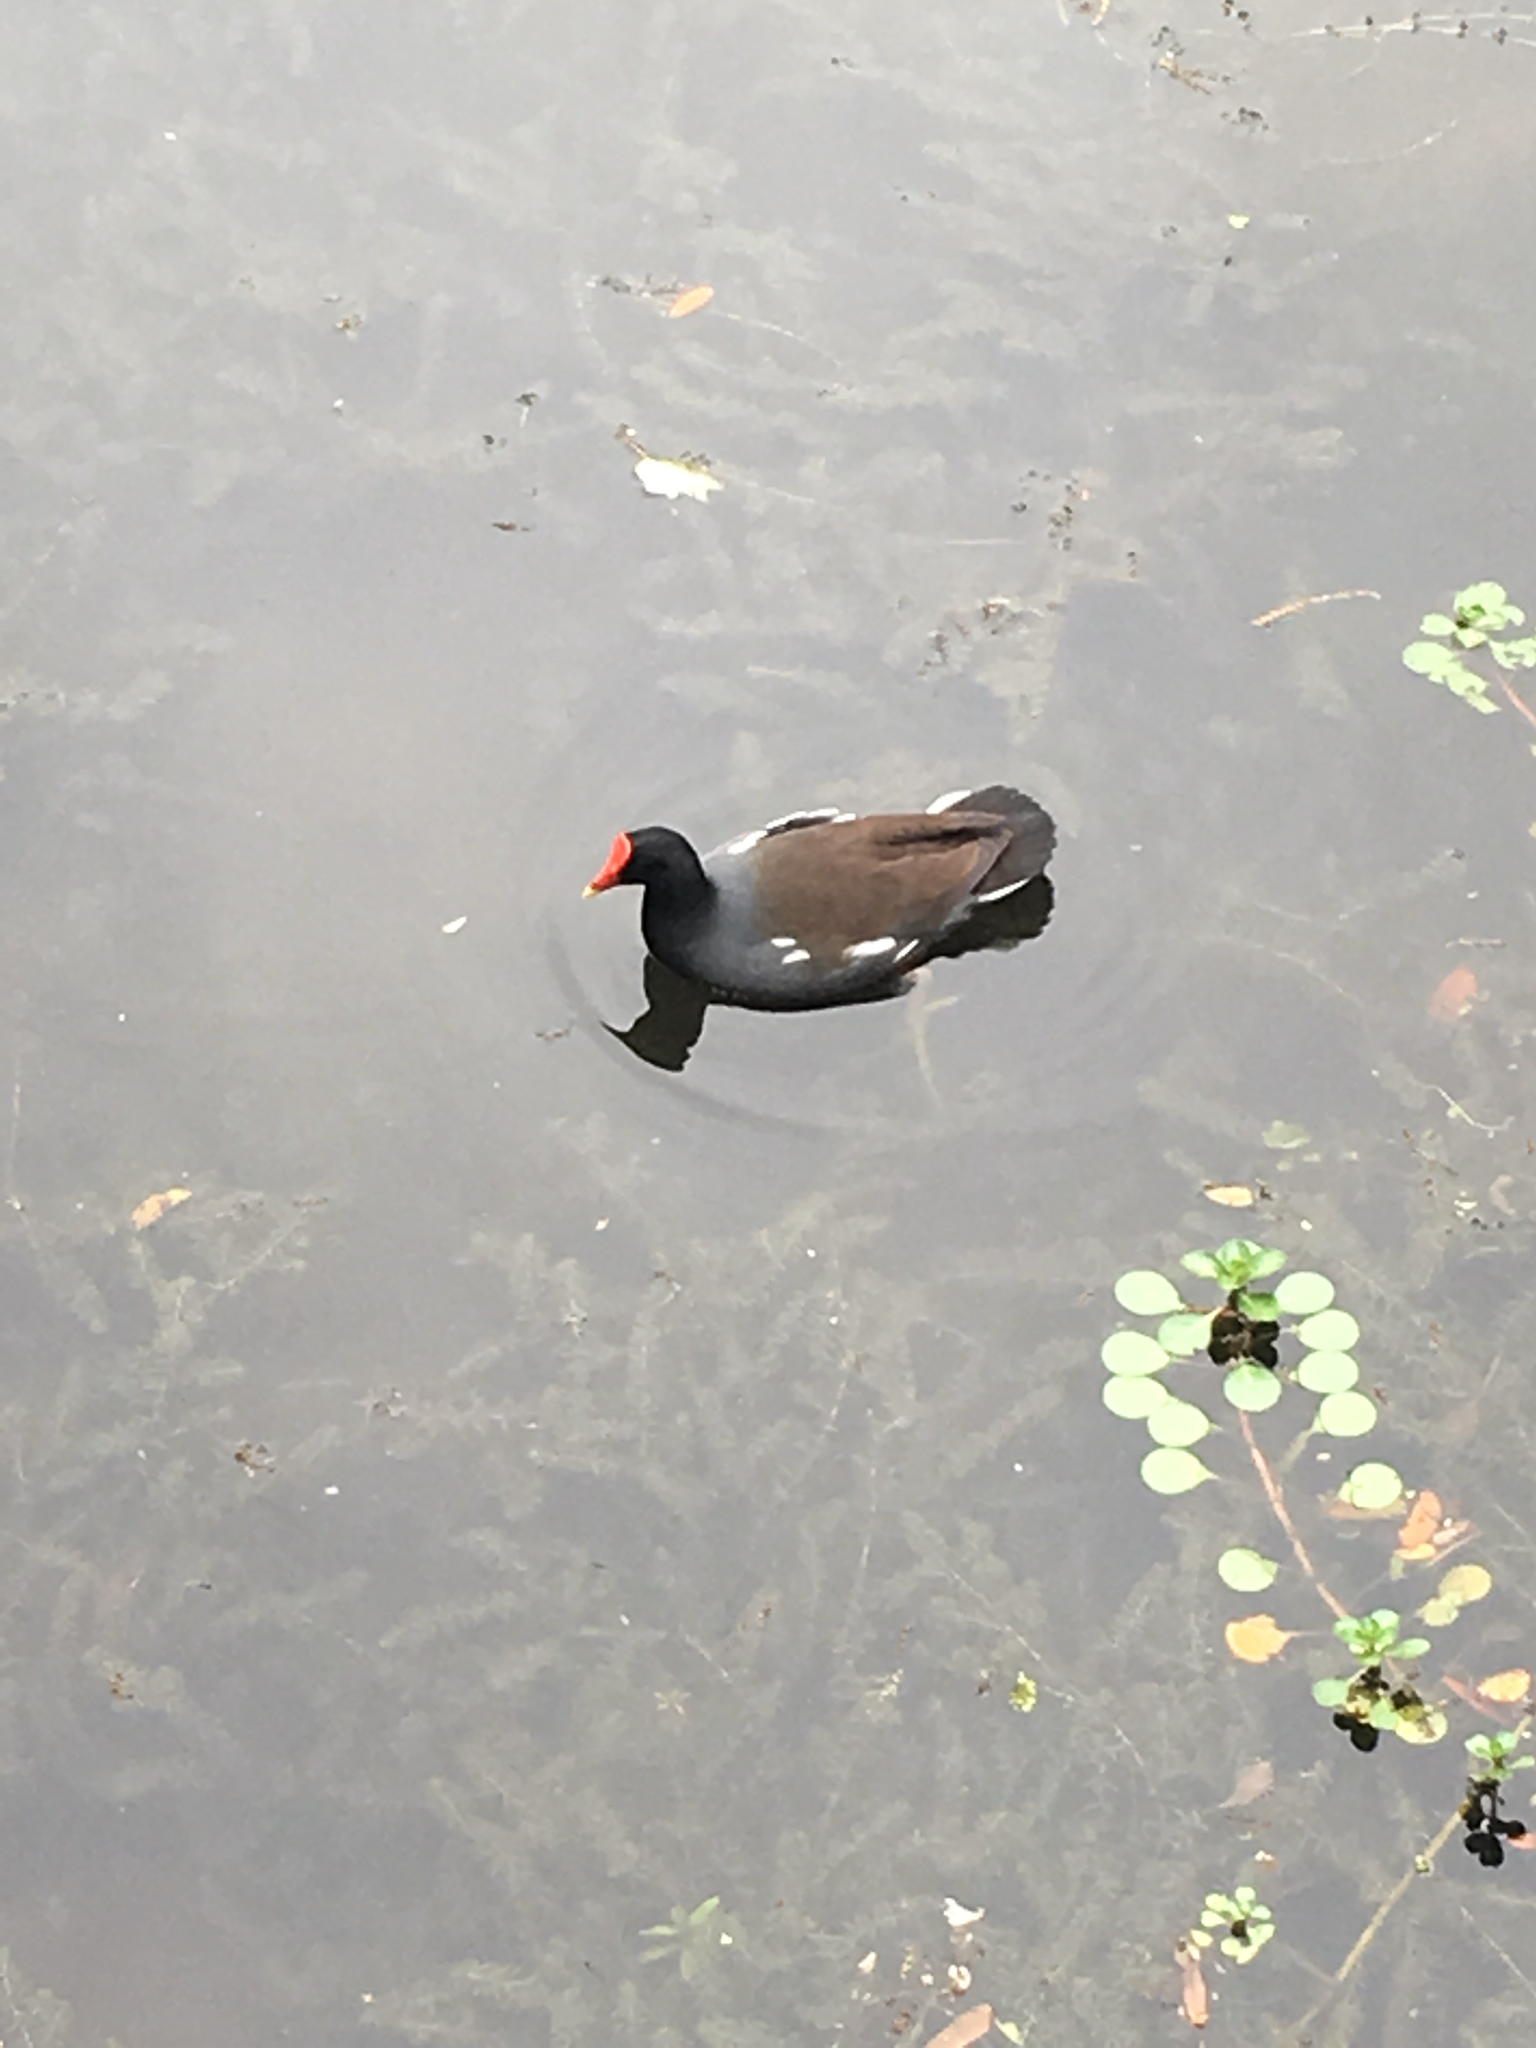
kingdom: Animalia
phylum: Chordata
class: Aves
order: Gruiformes
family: Rallidae
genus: Gallinula
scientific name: Gallinula chloropus
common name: Common moorhen
